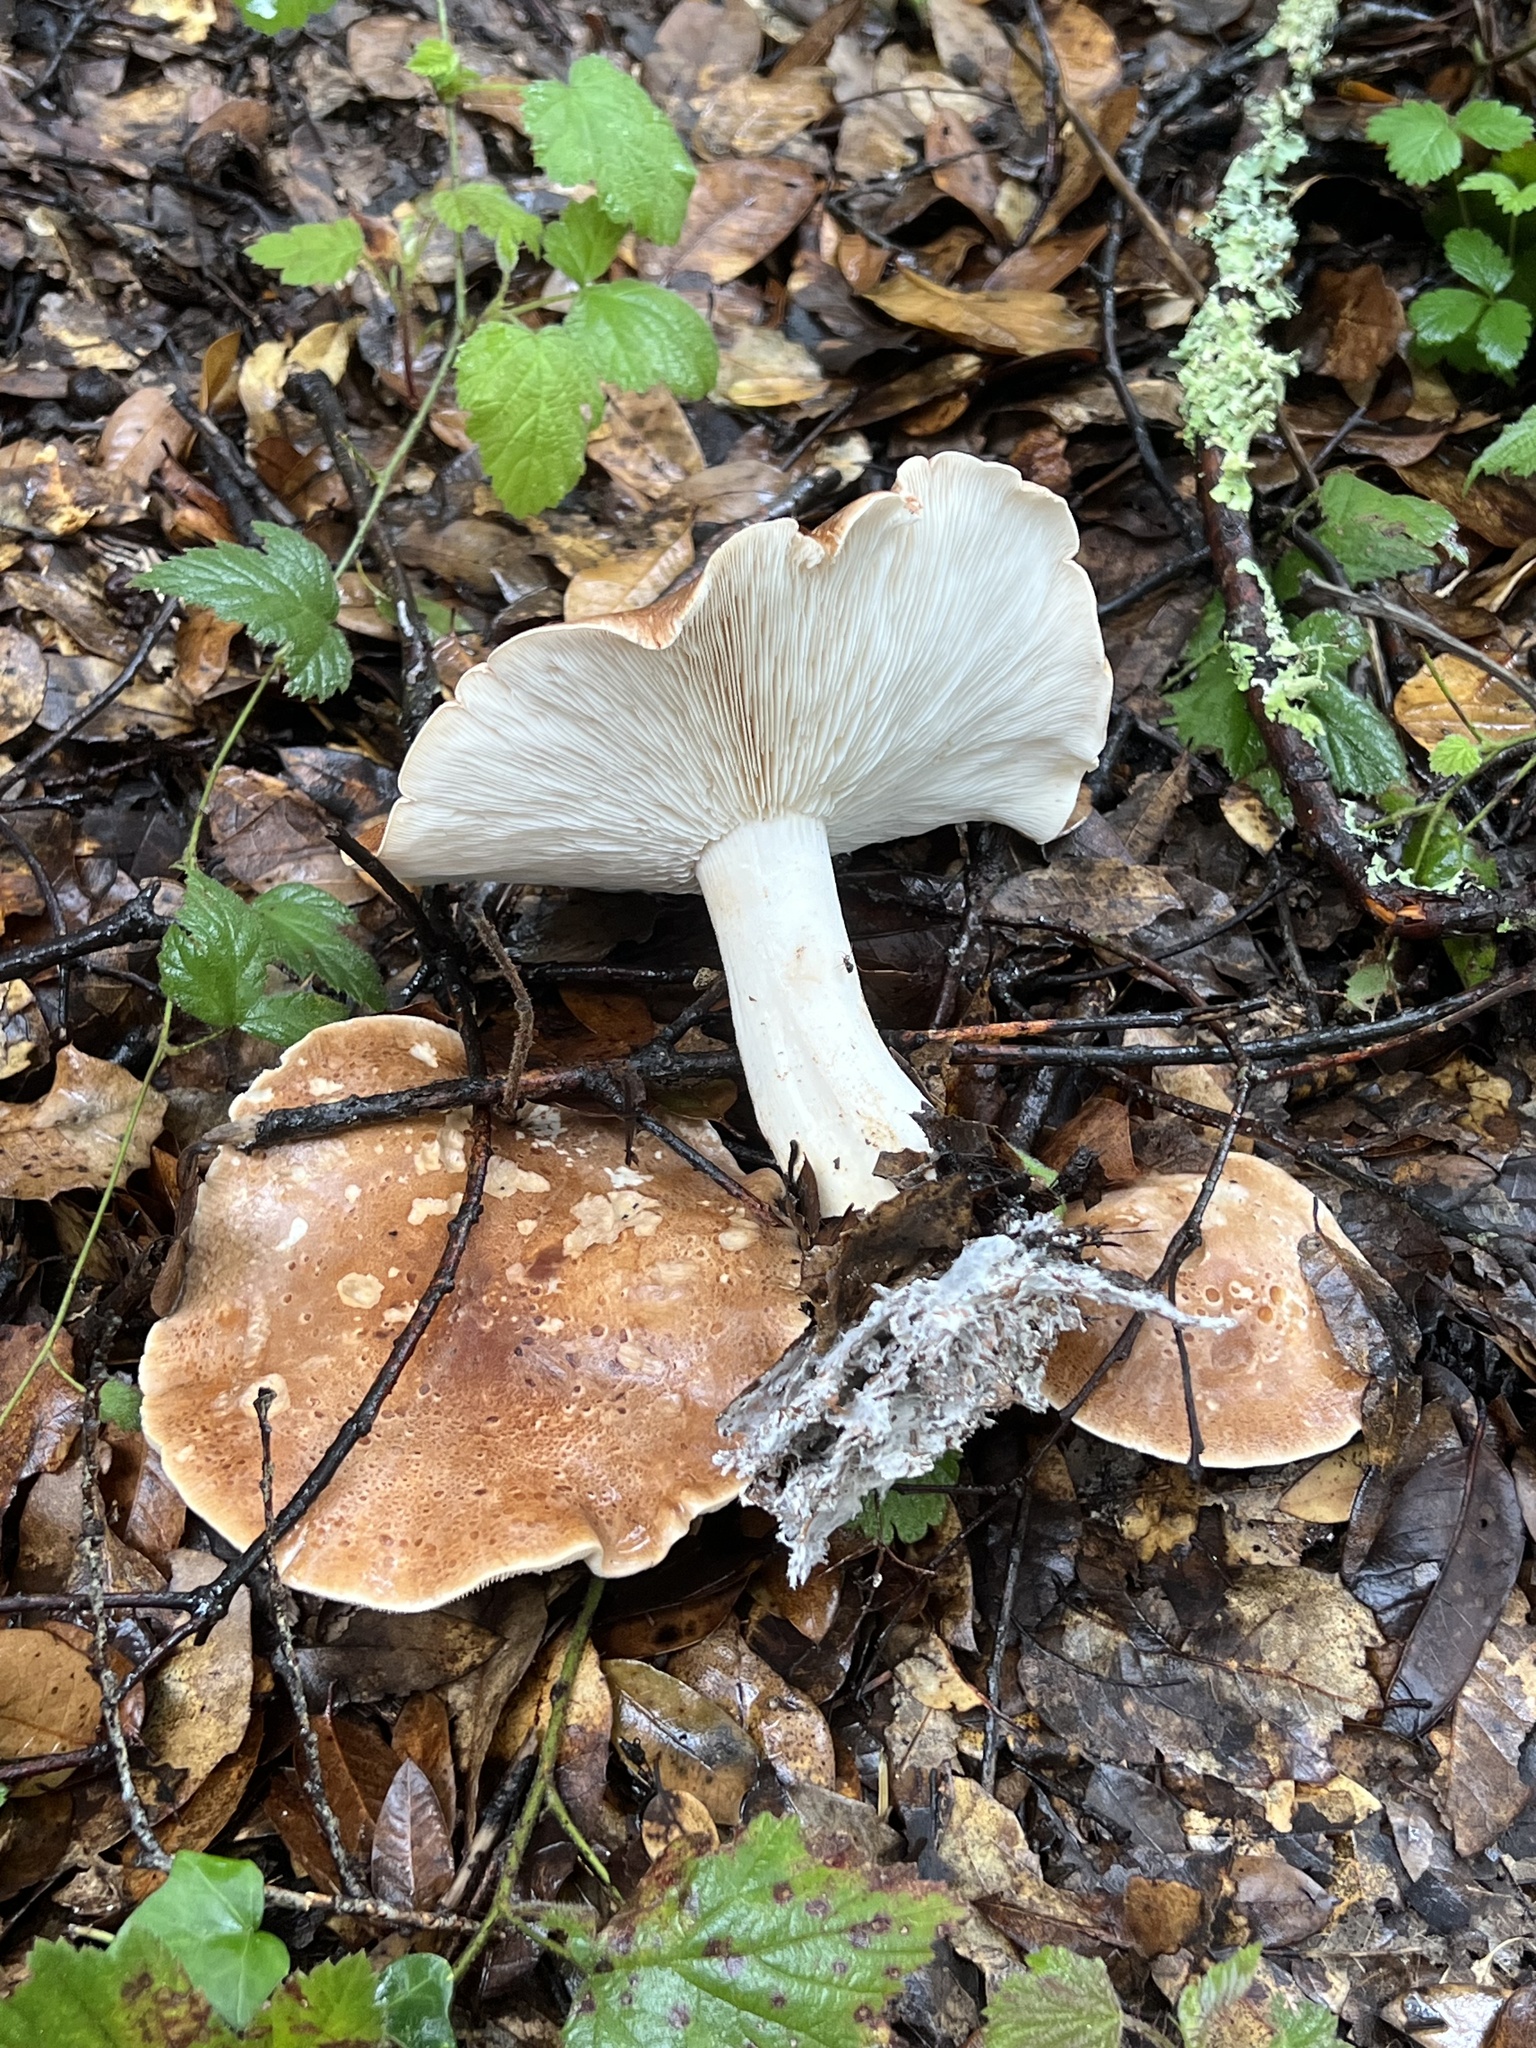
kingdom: Fungi
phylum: Basidiomycota
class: Agaricomycetes
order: Agaricales
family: Tricholomataceae
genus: Leucopaxillus
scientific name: Leucopaxillus gentianeus
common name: Bitter funnel
